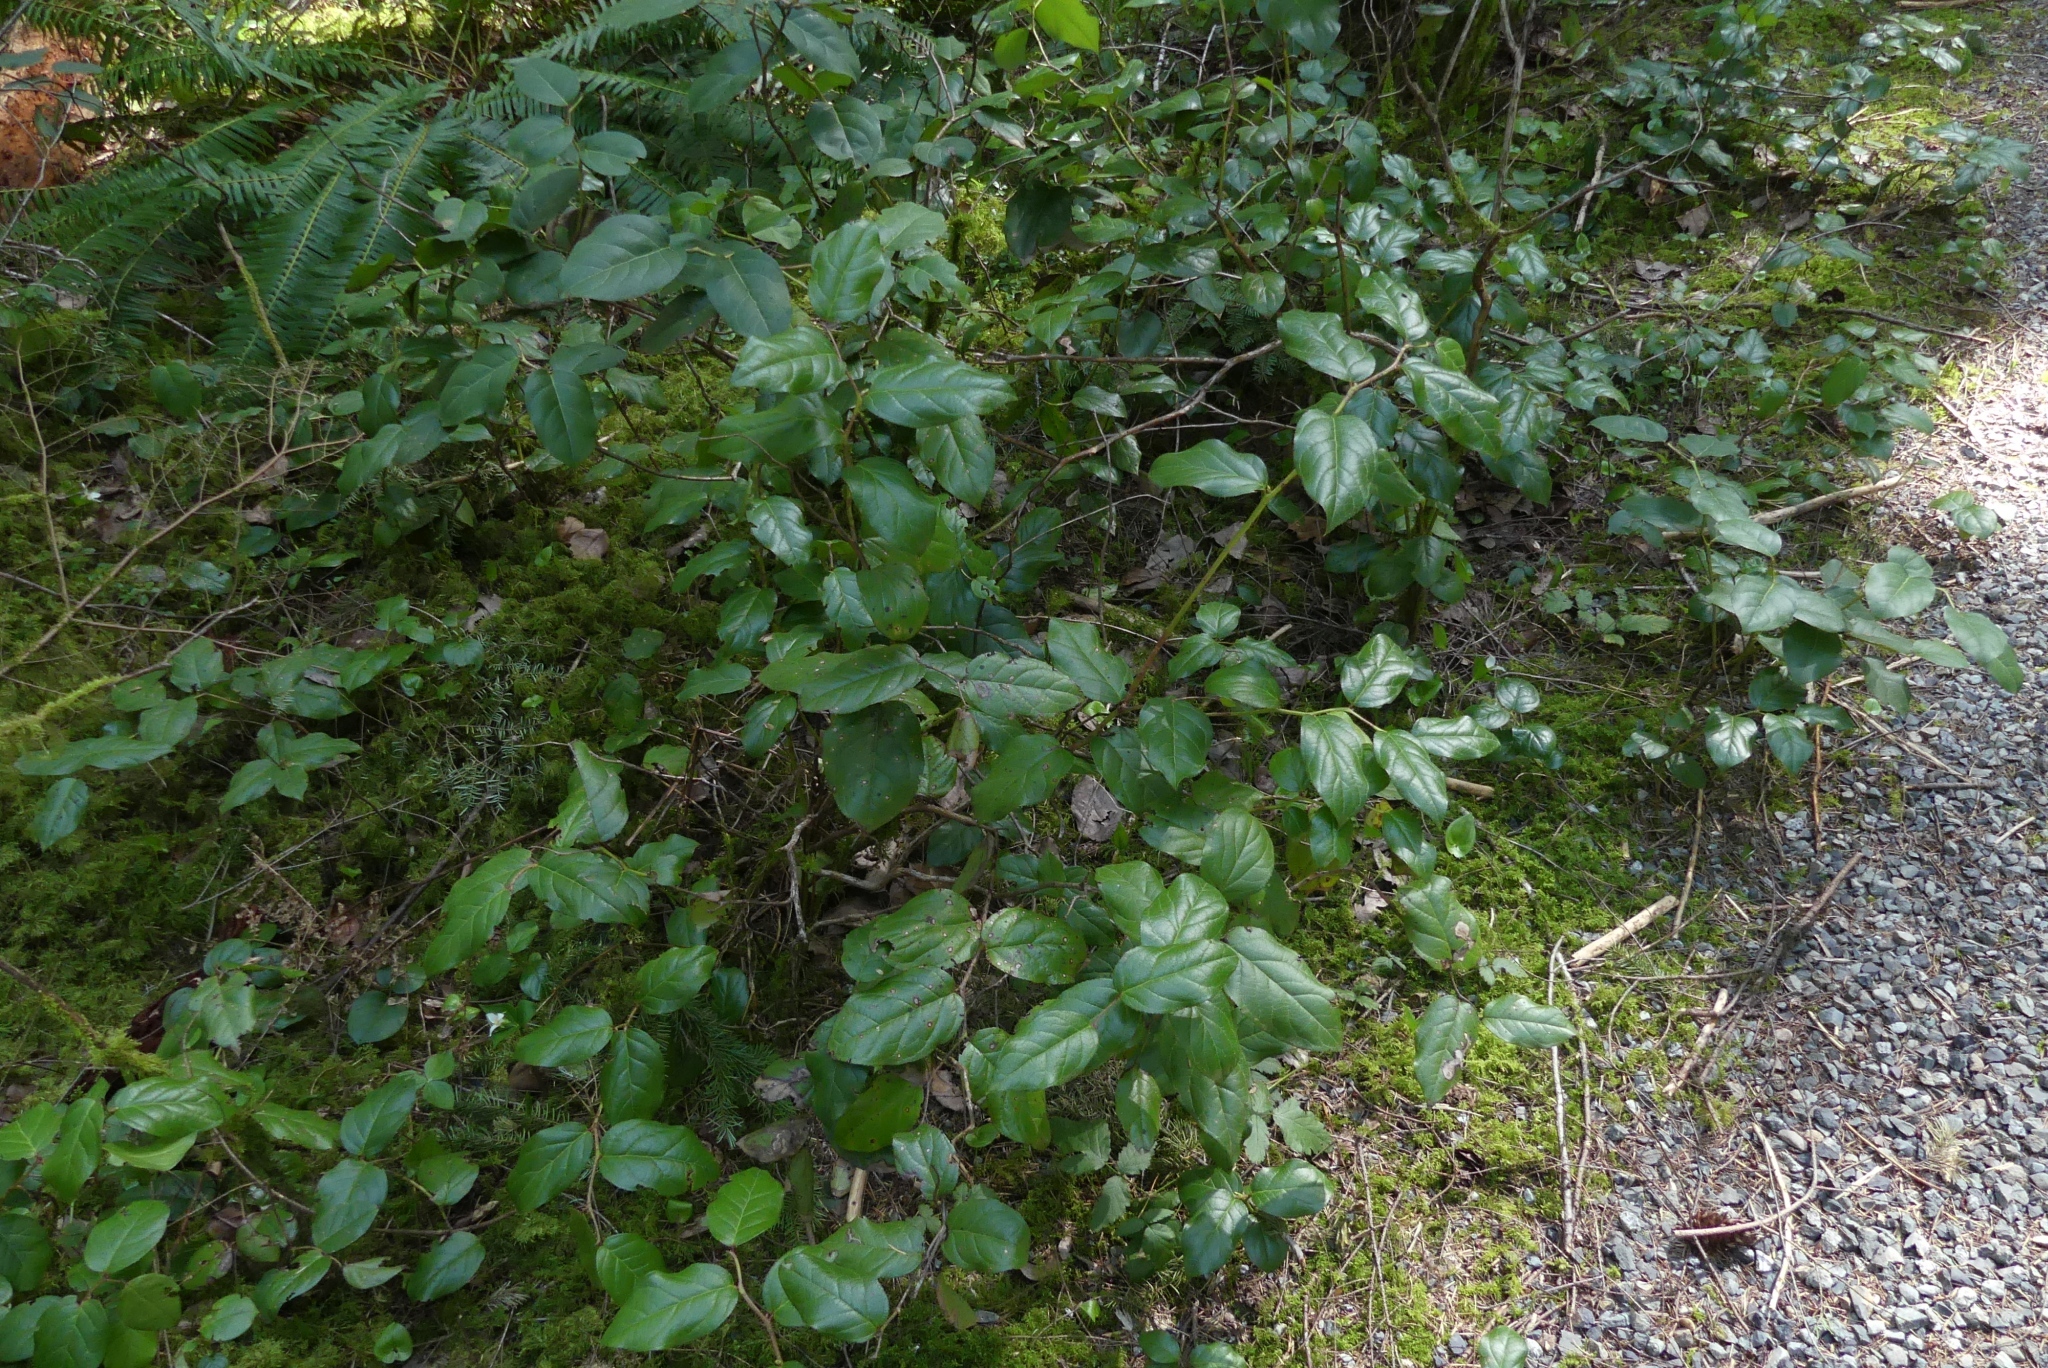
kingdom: Plantae
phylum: Tracheophyta
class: Magnoliopsida
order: Ericales
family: Ericaceae
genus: Gaultheria
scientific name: Gaultheria shallon
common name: Shallon
